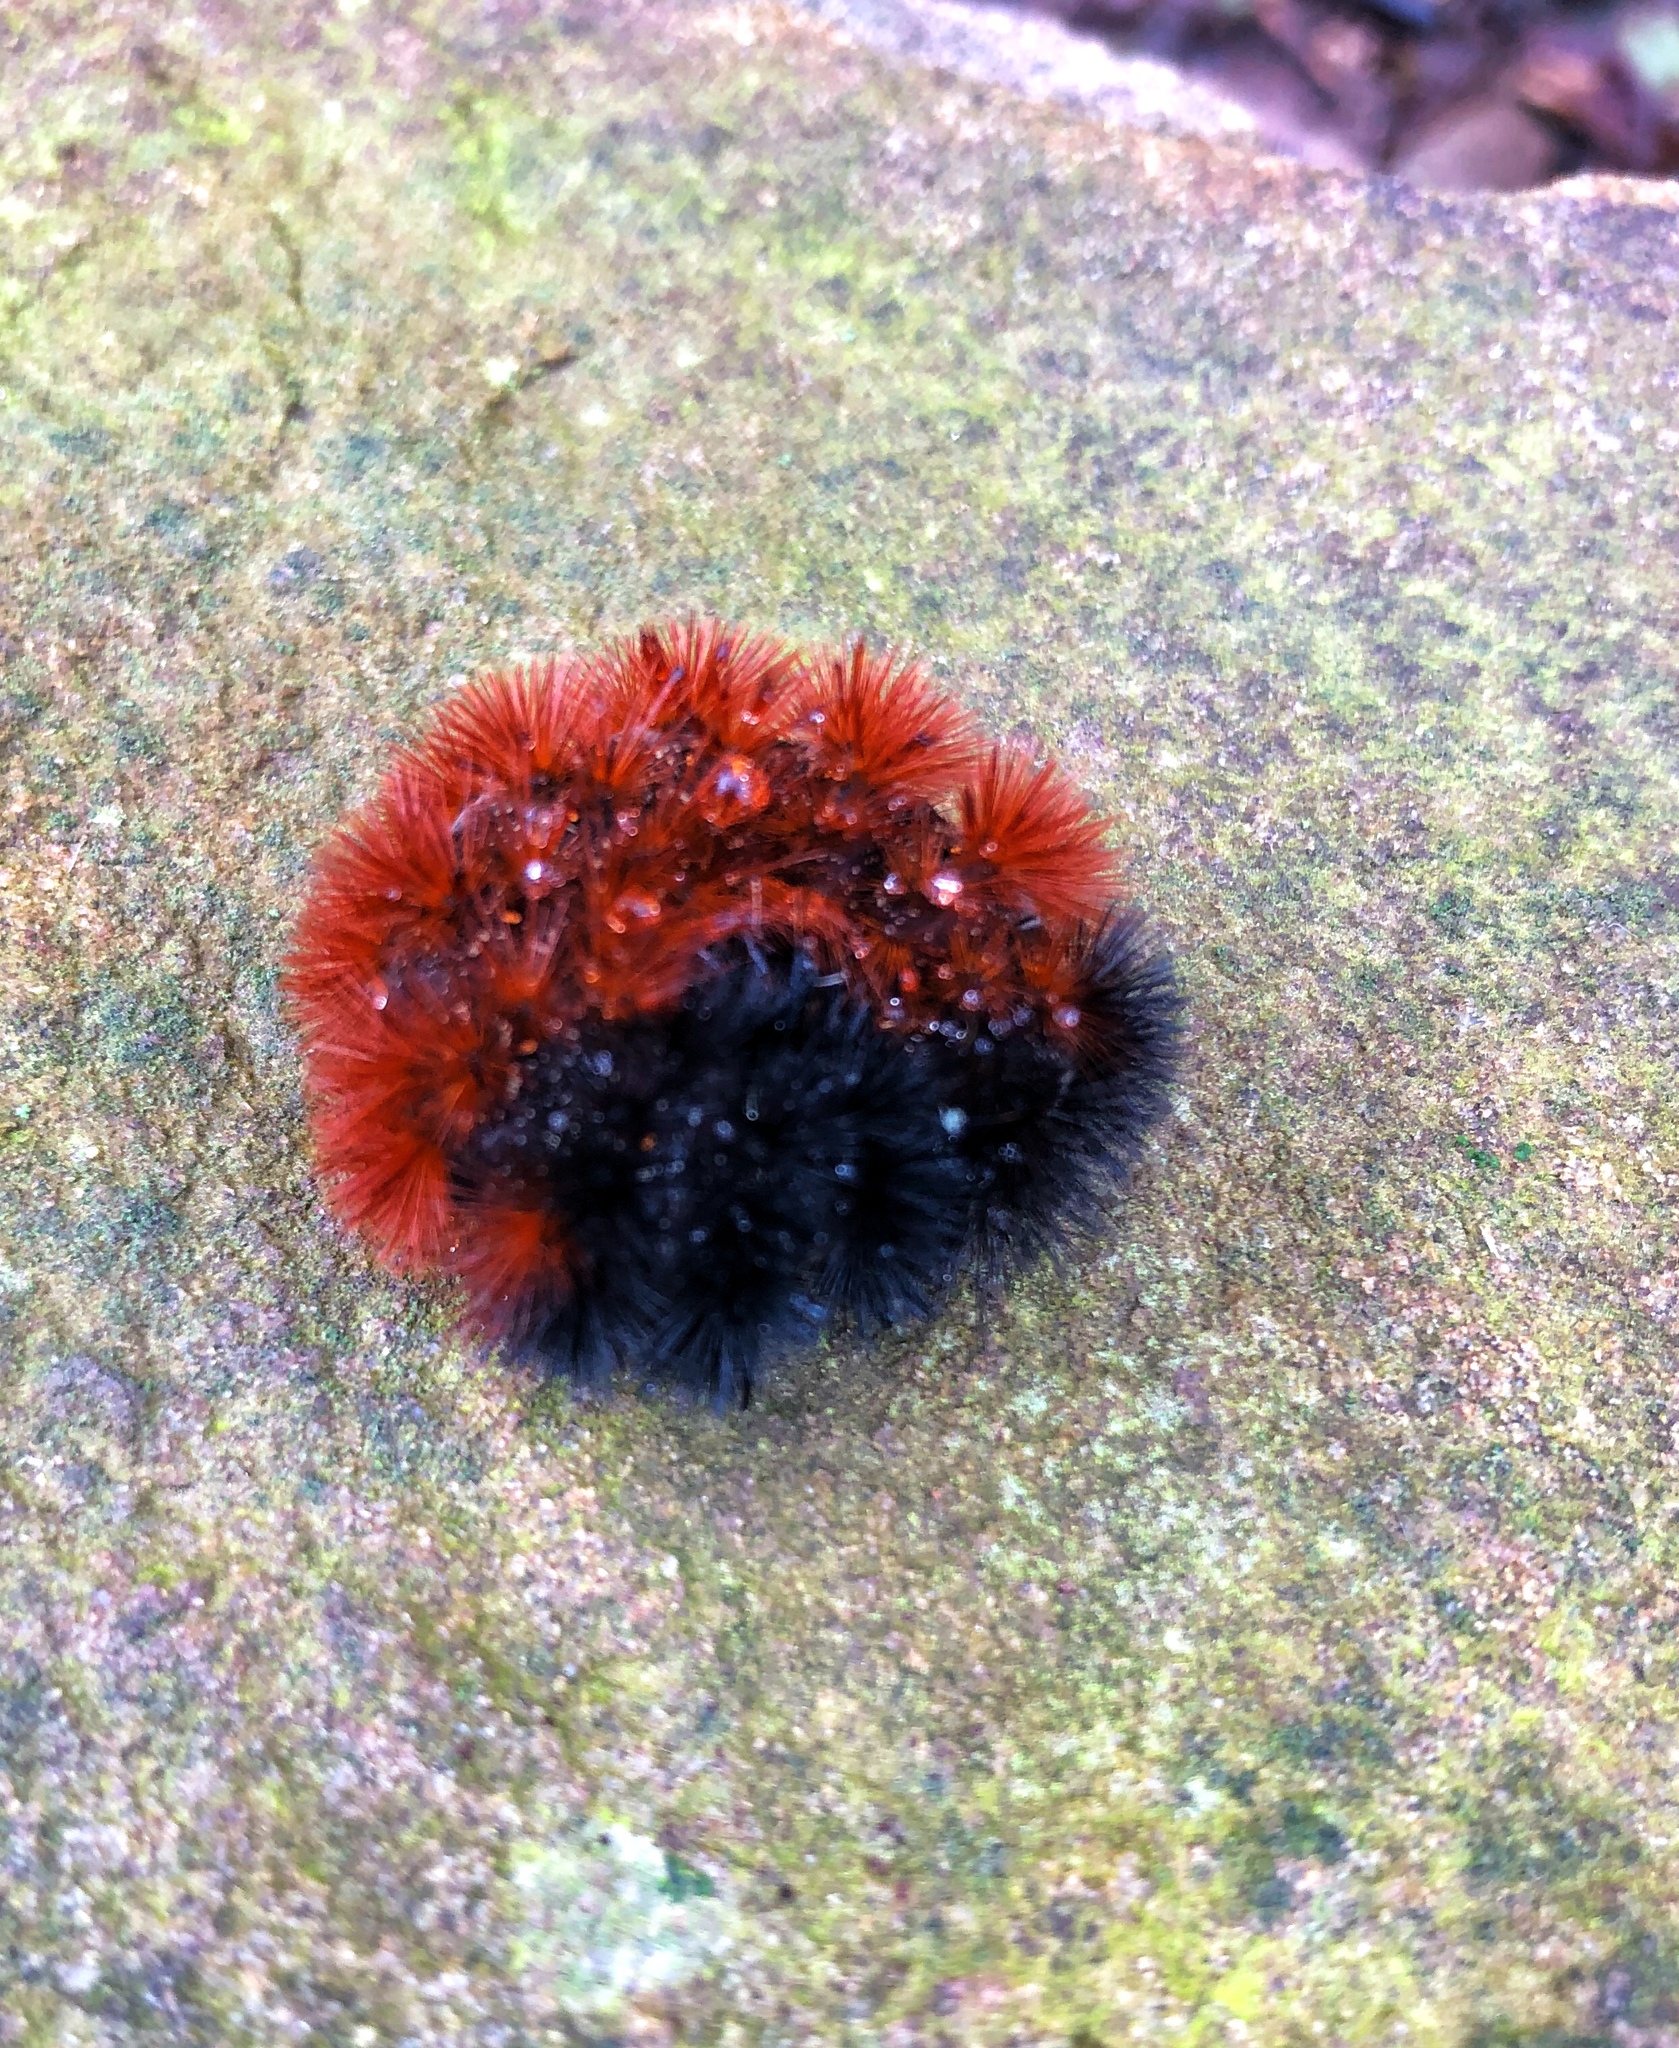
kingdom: Animalia
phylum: Arthropoda
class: Insecta
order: Lepidoptera
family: Erebidae
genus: Pyrrharctia
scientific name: Pyrrharctia isabella
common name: Isabella tiger moth
